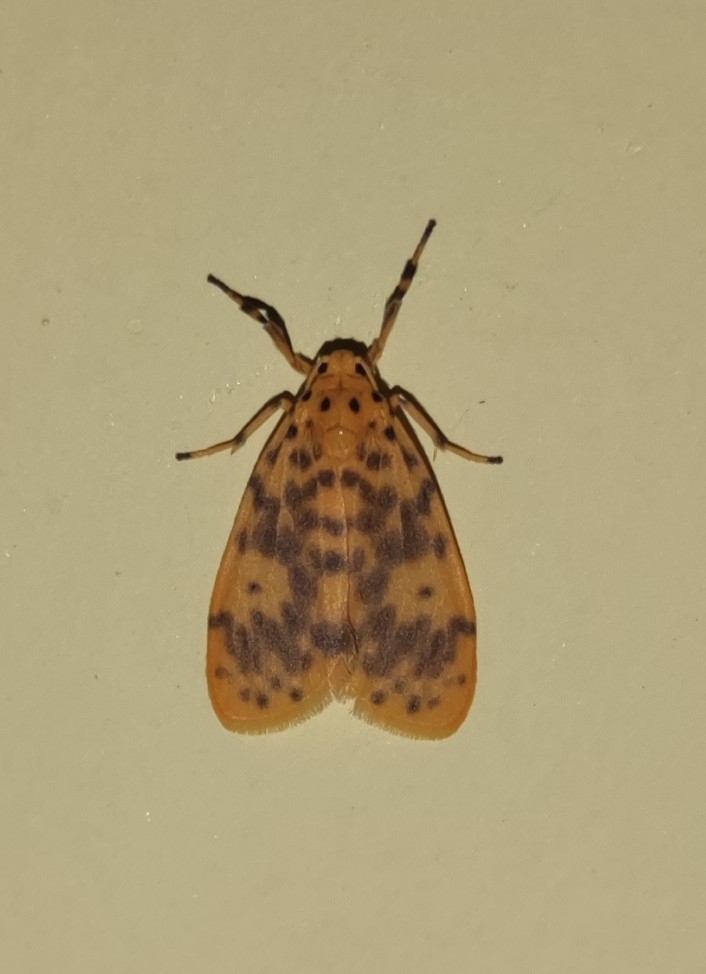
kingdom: Animalia
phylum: Arthropoda
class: Insecta
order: Lepidoptera
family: Erebidae
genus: Miltochrista
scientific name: Miltochrista obsoleta
